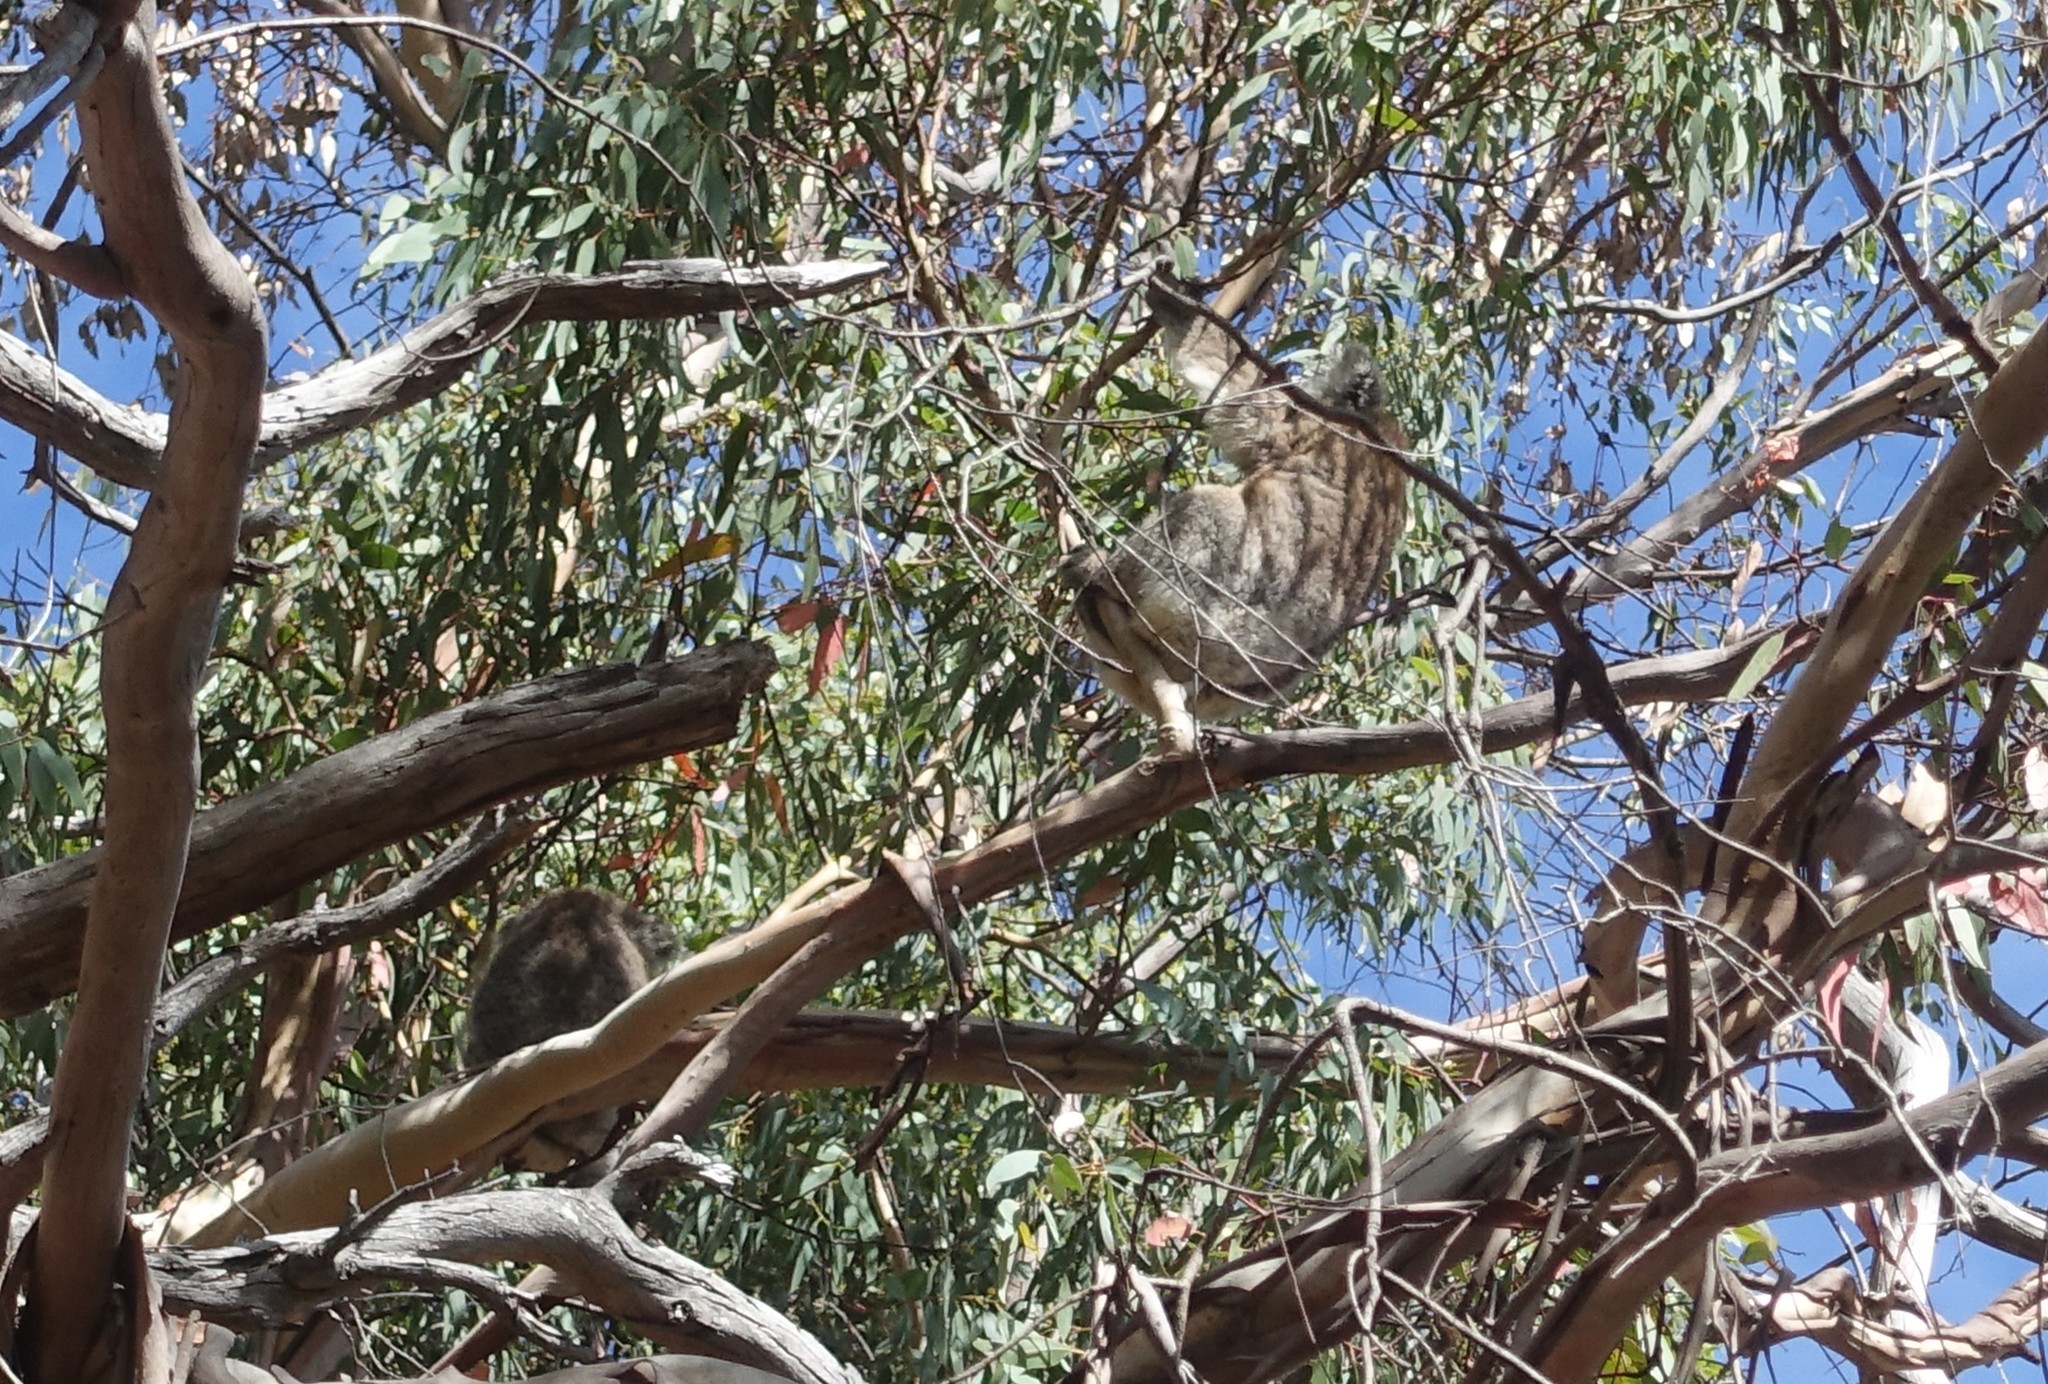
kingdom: Animalia
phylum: Chordata
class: Mammalia
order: Diprotodontia
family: Phascolarctidae
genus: Phascolarctos
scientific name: Phascolarctos cinereus
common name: Koala
